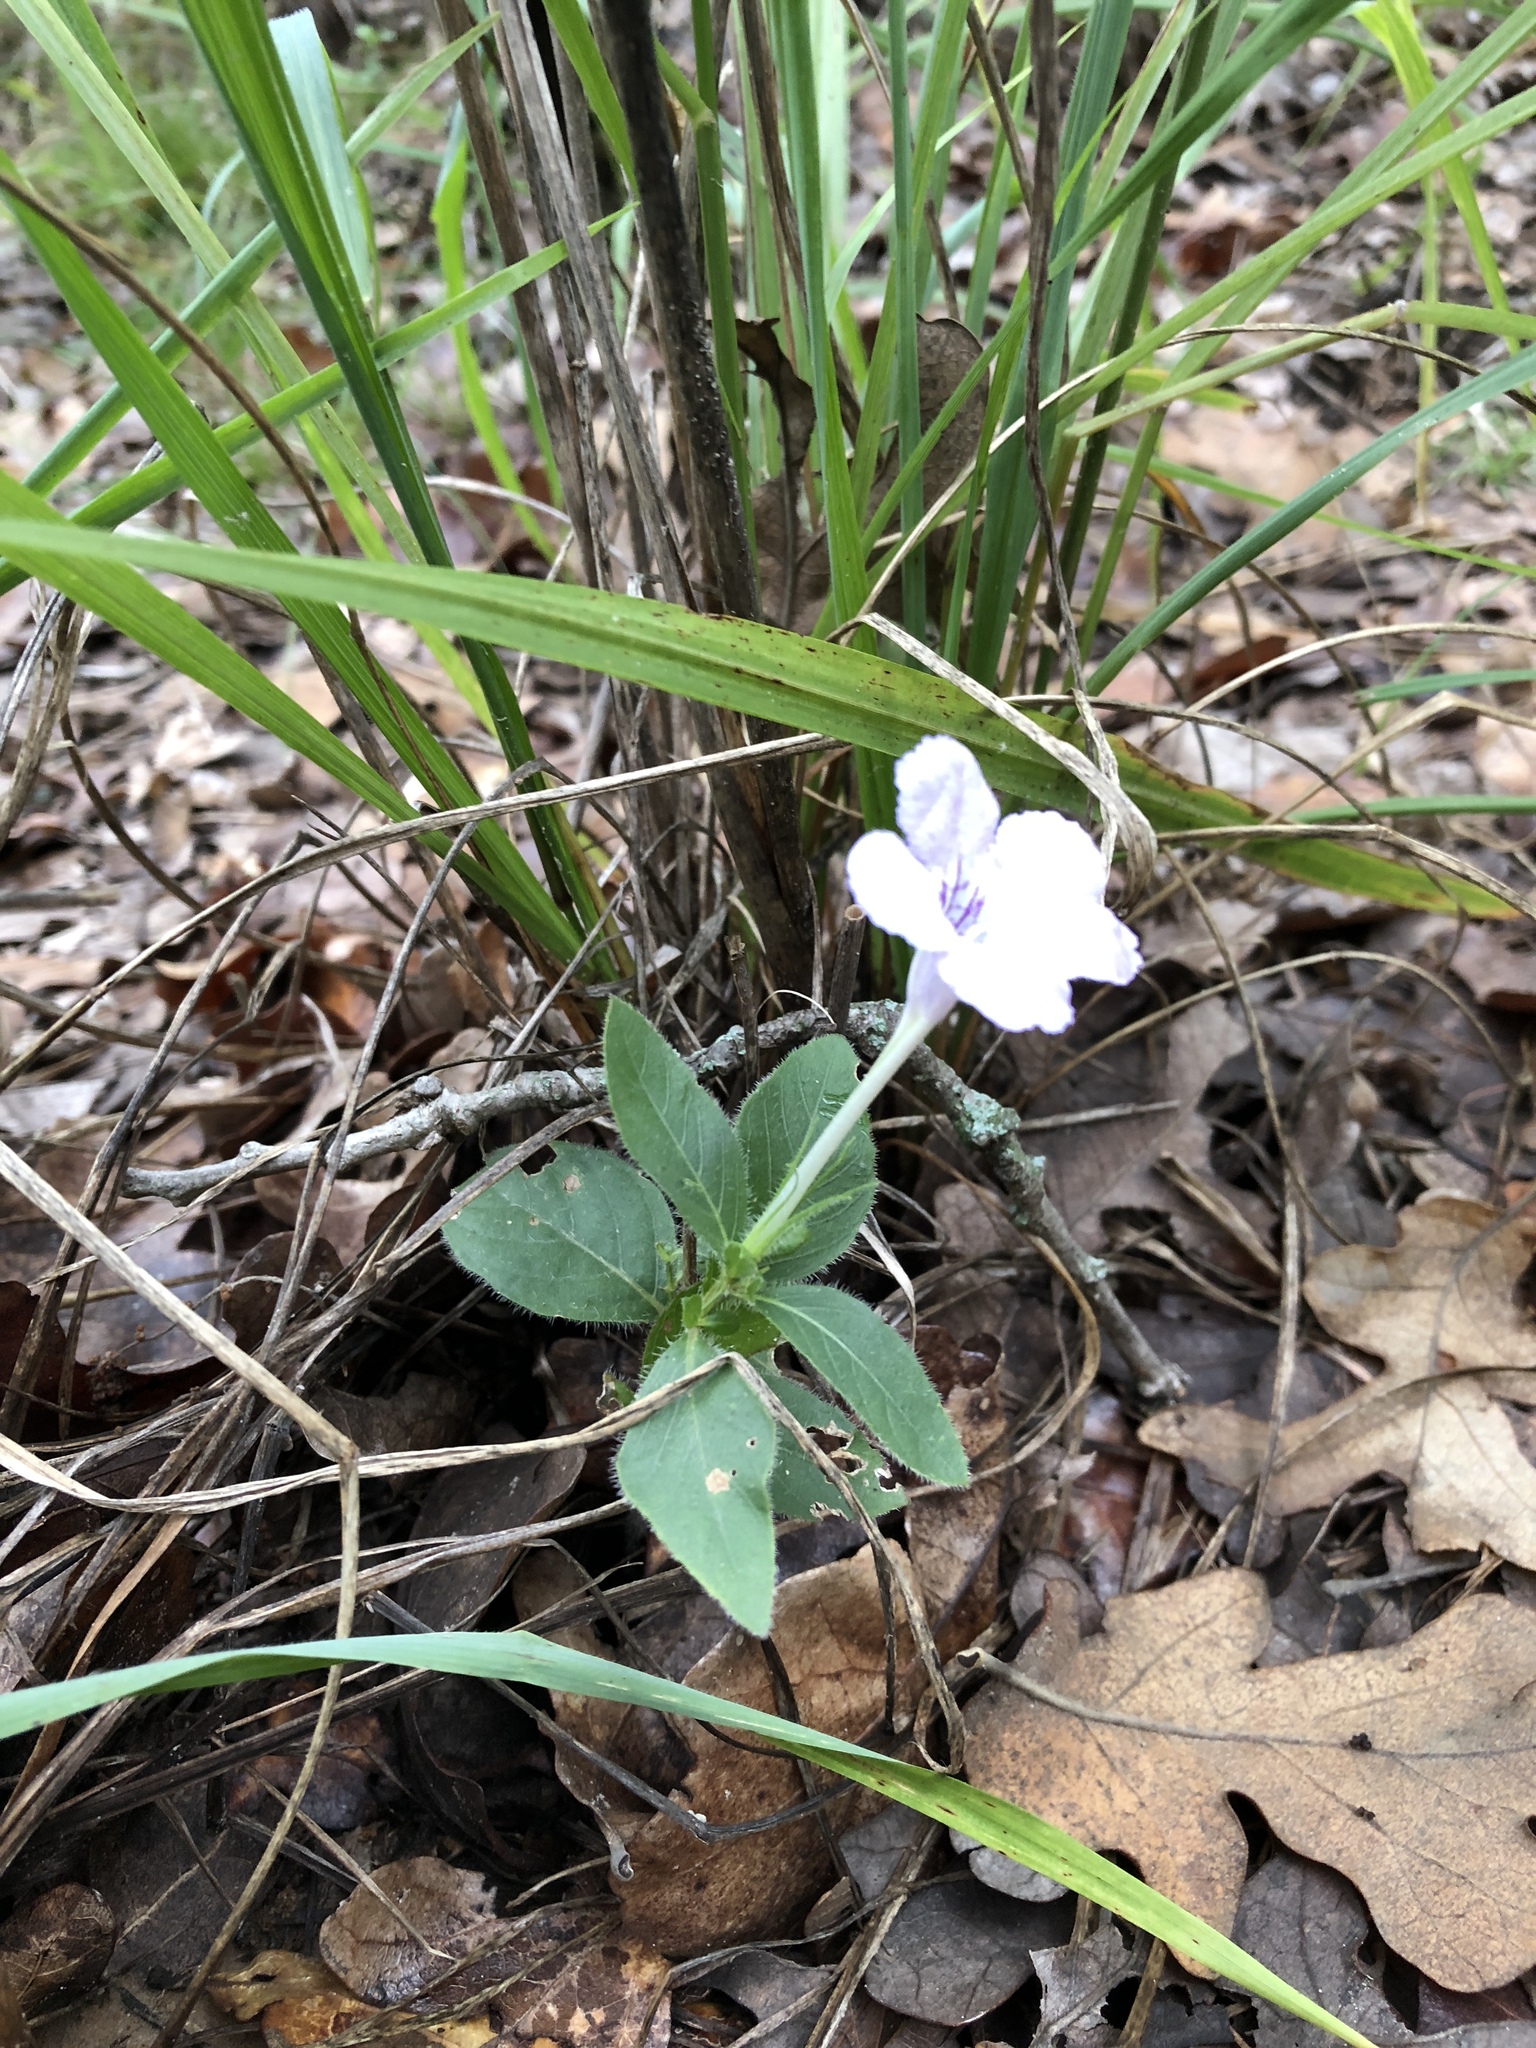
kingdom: Plantae
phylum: Tracheophyta
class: Magnoliopsida
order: Lamiales
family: Acanthaceae
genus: Ruellia
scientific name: Ruellia humilis
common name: Fringe-leaf ruellia
